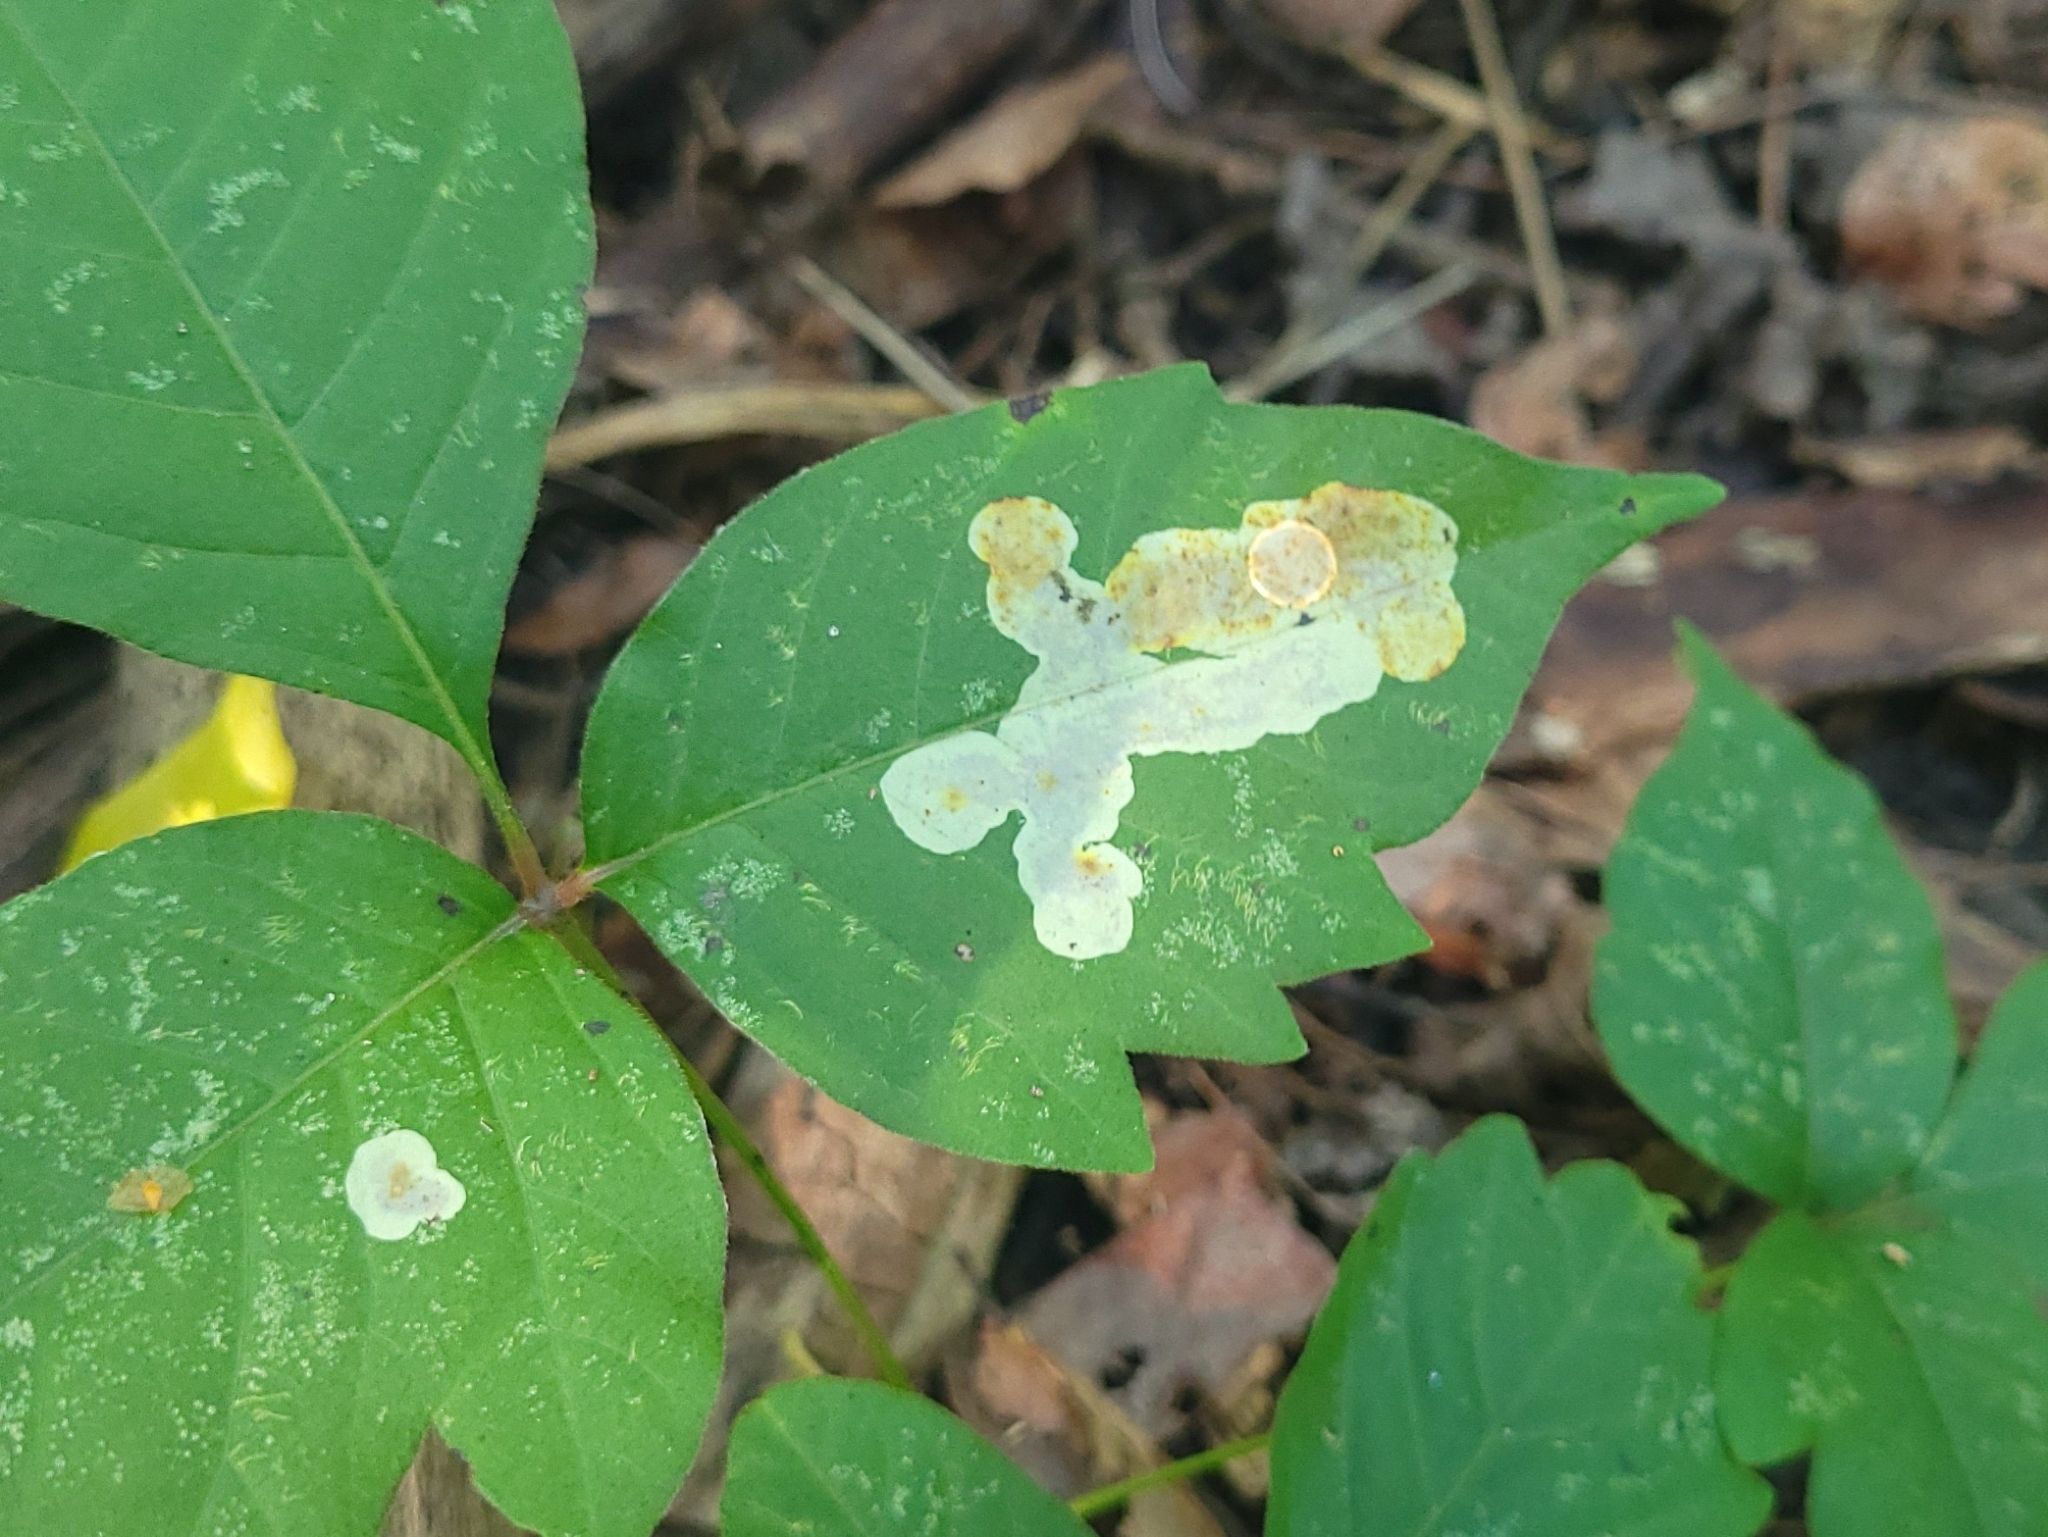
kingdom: Animalia
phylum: Arthropoda
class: Insecta
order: Lepidoptera
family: Gracillariidae
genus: Cameraria
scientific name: Cameraria guttifinitella
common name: Poison ivy leaf-miner moth
